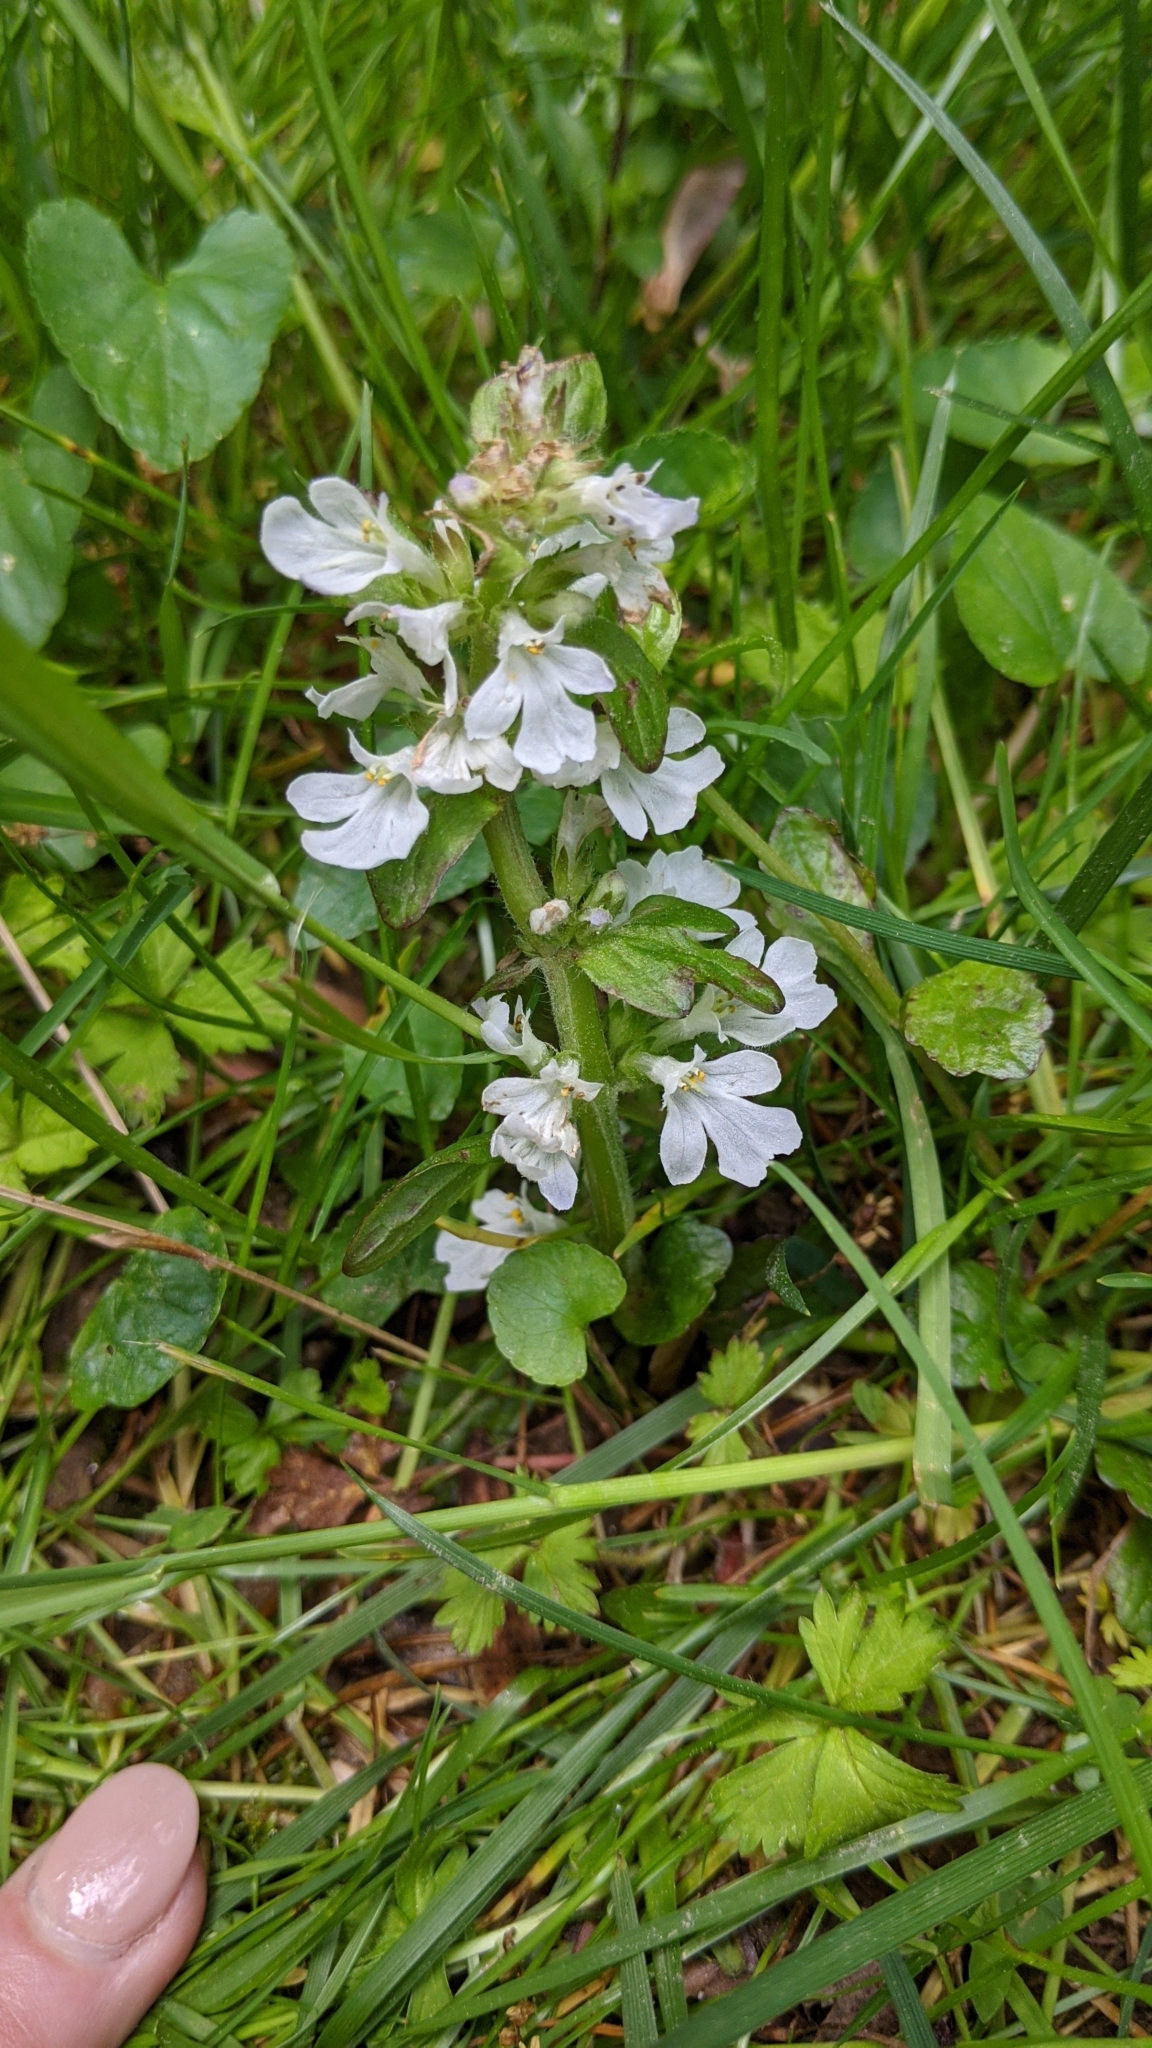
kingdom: Plantae
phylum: Tracheophyta
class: Magnoliopsida
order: Lamiales
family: Lamiaceae
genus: Ajuga
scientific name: Ajuga reptans
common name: Bugle
